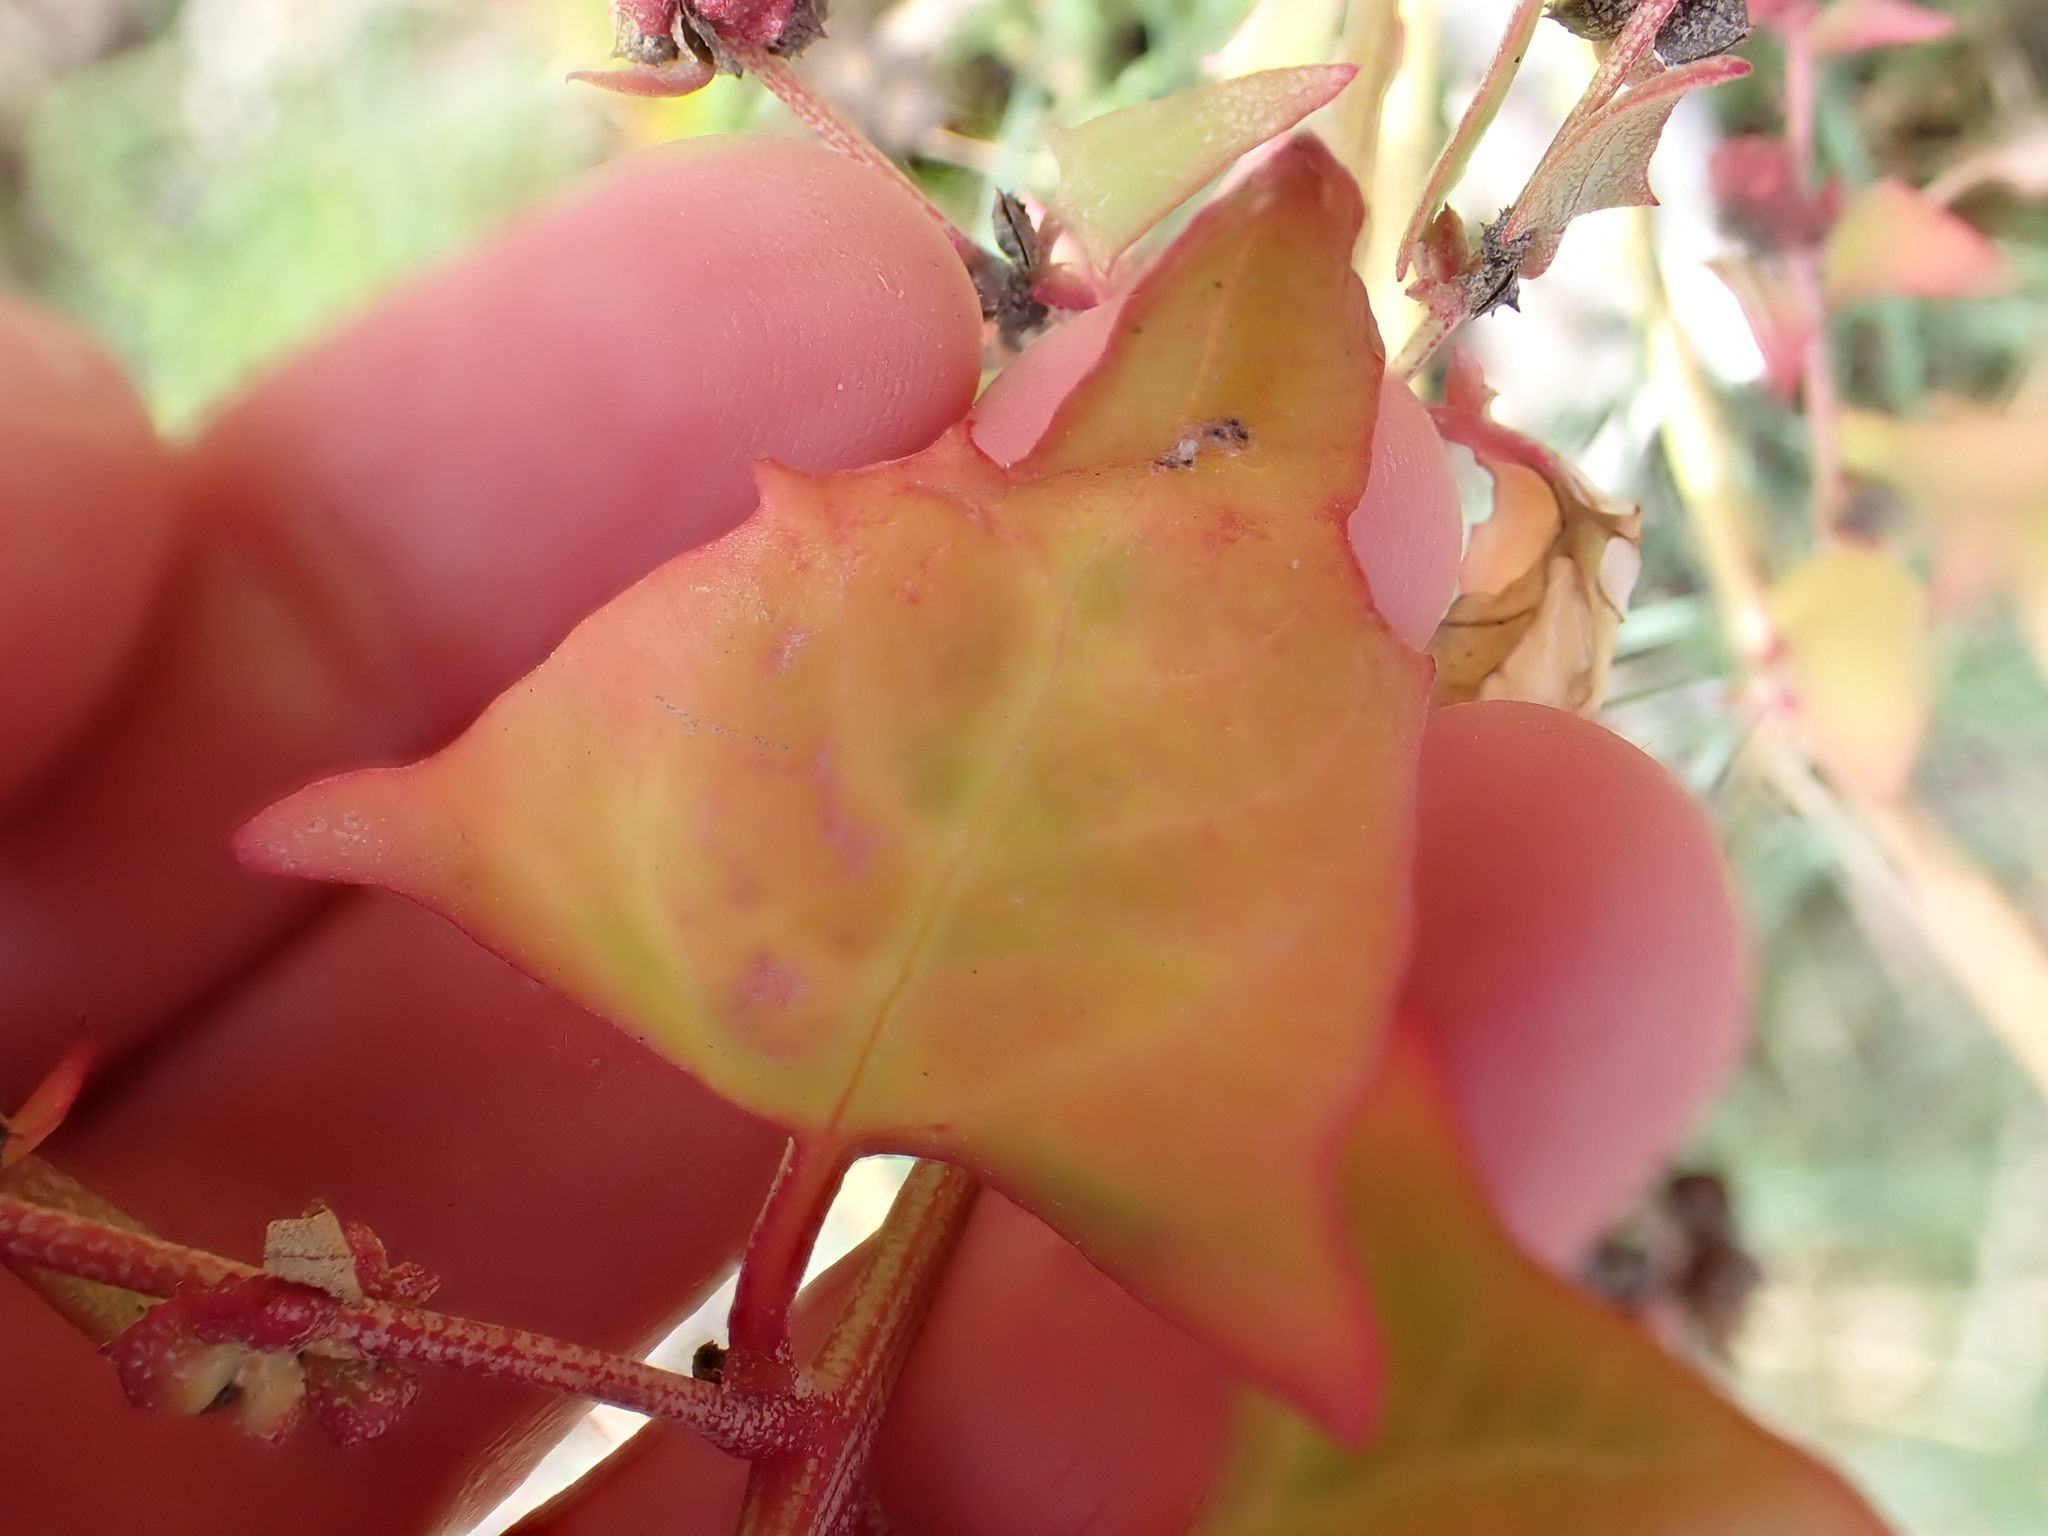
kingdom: Plantae
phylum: Tracheophyta
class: Magnoliopsida
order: Caryophyllales
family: Amaranthaceae
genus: Atriplex
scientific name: Atriplex prostrata
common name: Spear-leaved orache
